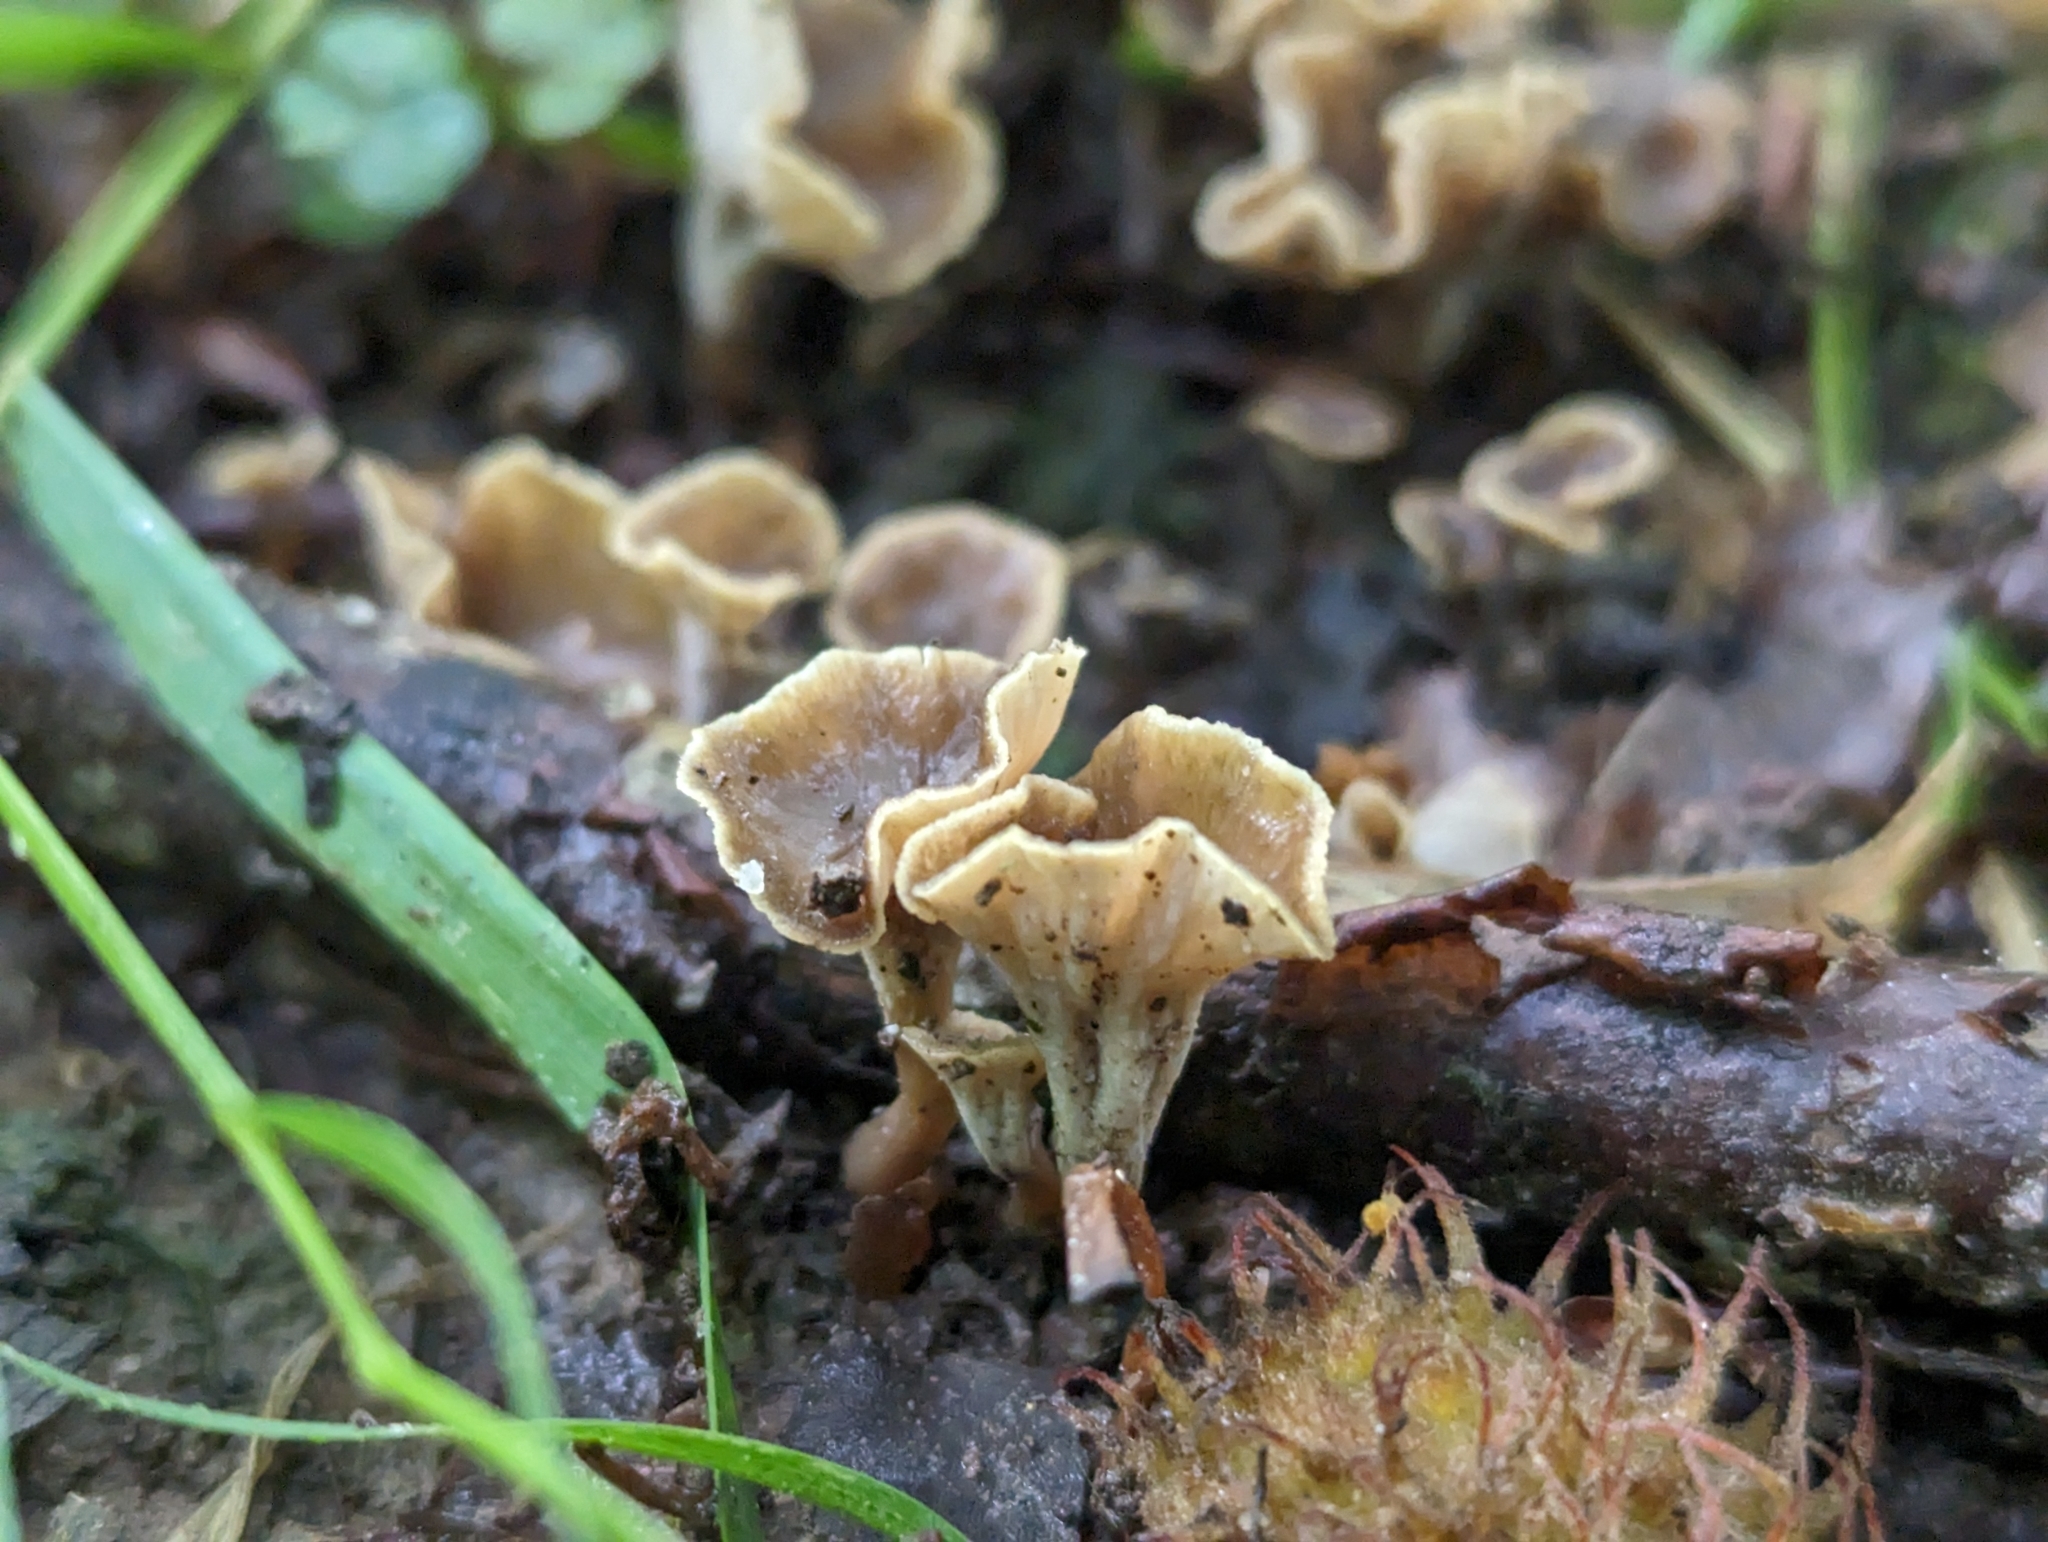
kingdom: Fungi
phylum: Basidiomycota
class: Agaricomycetes
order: Cantharellales
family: Hydnaceae
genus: Craterellus
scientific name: Craterellus undulatus
